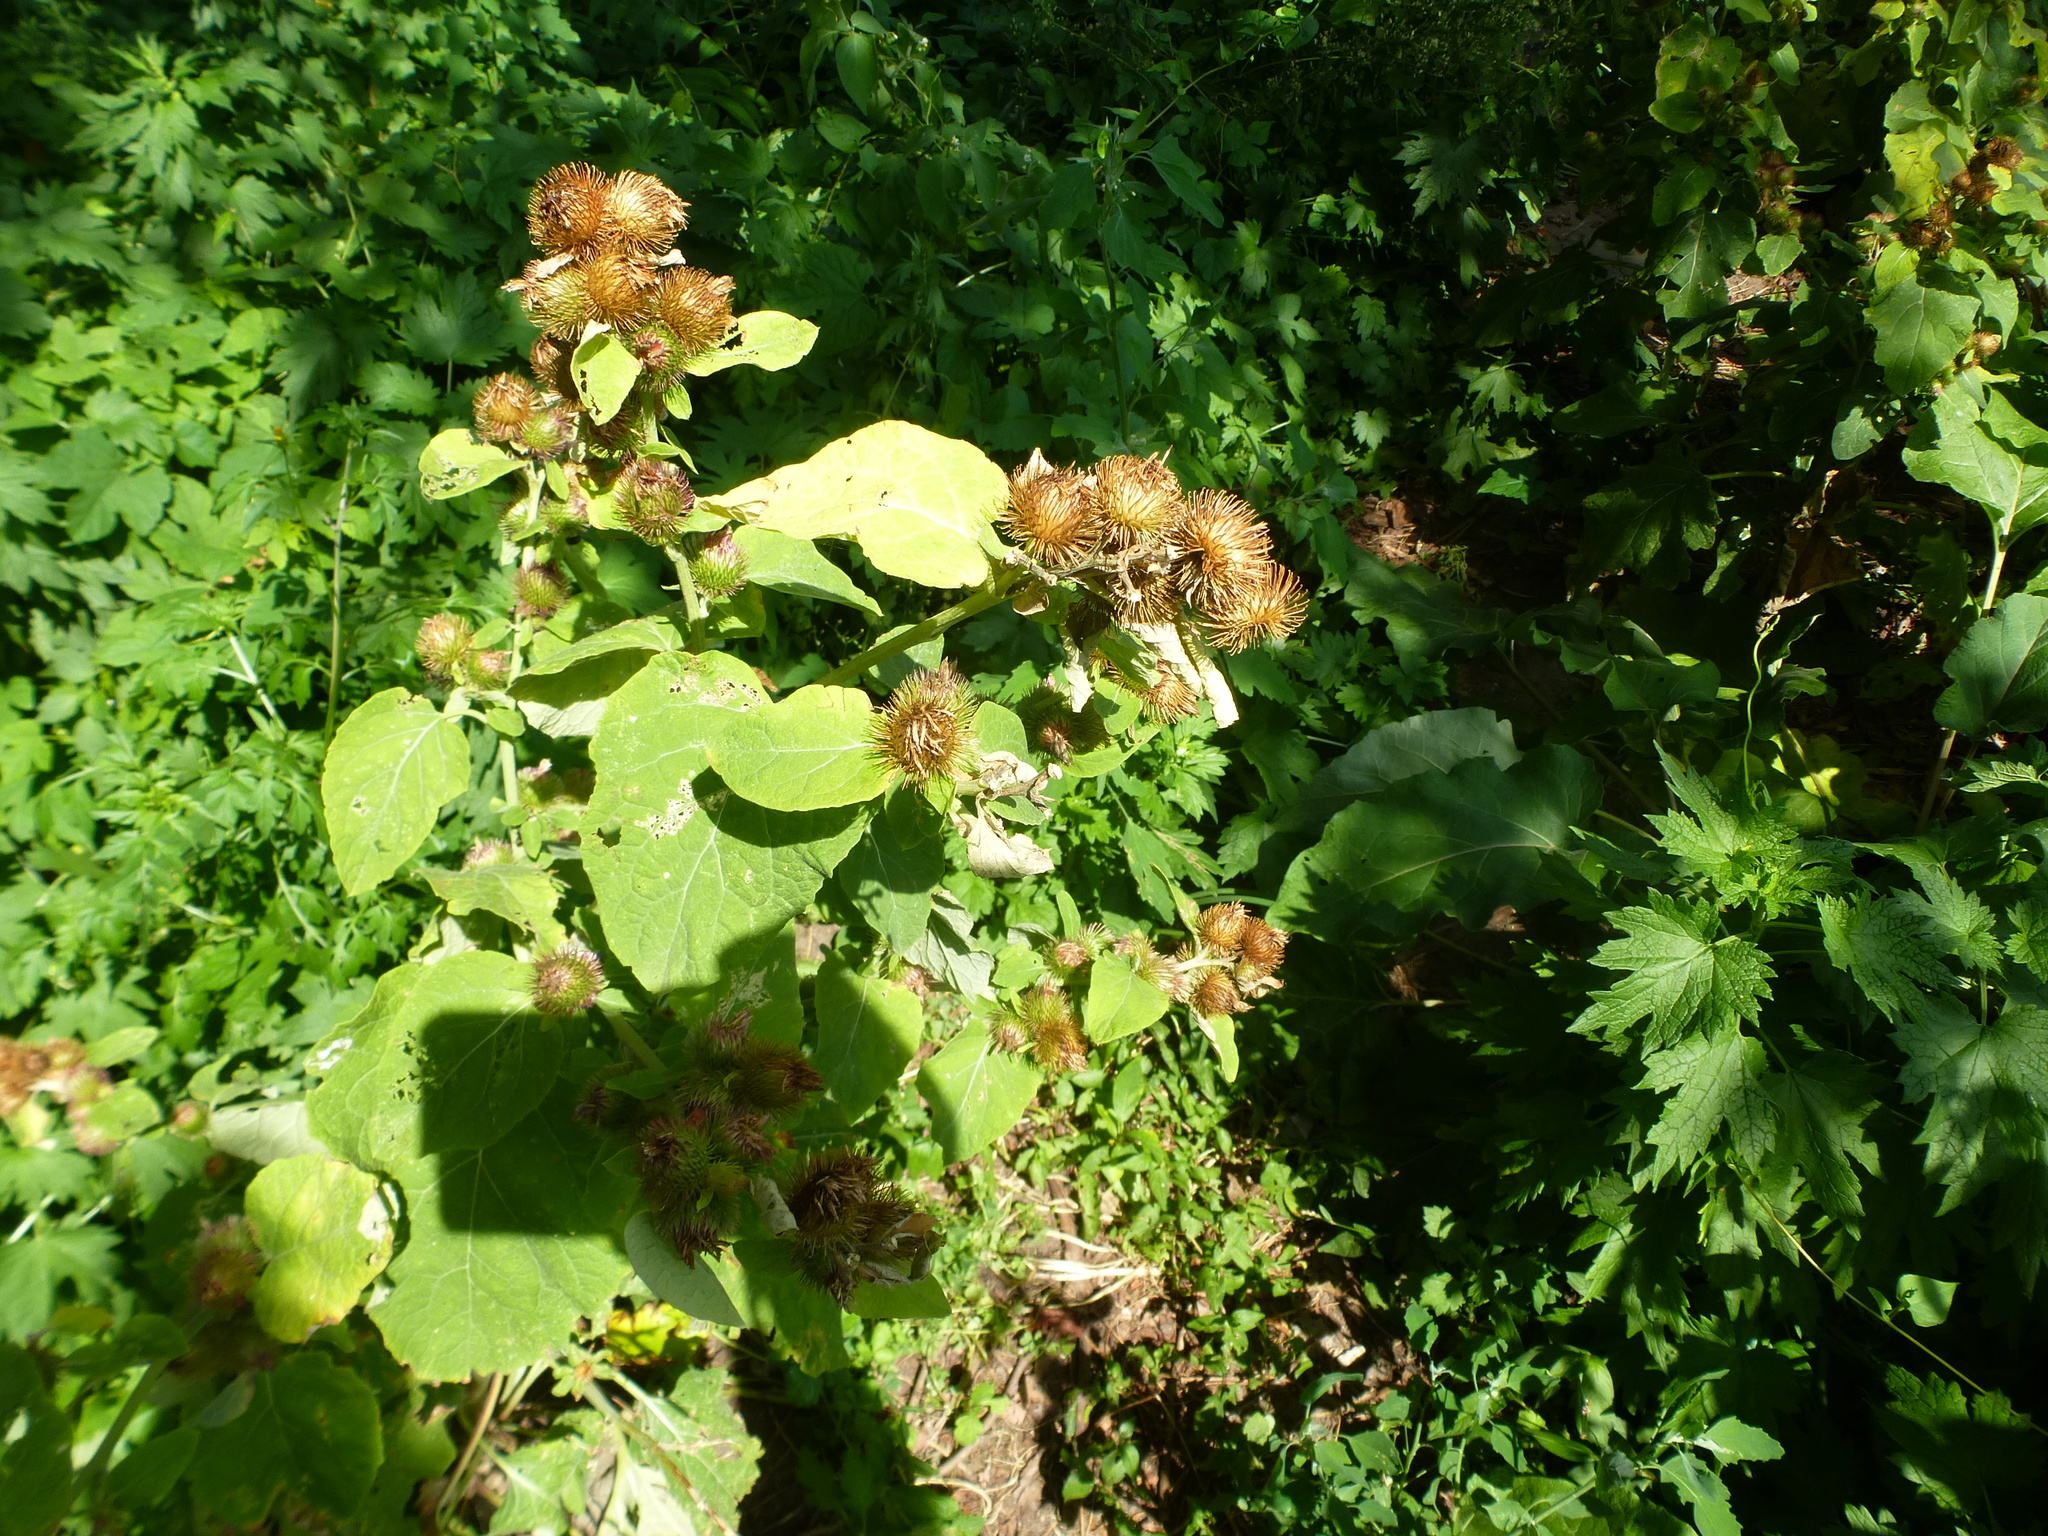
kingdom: Plantae
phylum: Tracheophyta
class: Magnoliopsida
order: Asterales
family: Asteraceae
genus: Arctium
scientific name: Arctium minus
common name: Lesser burdock
